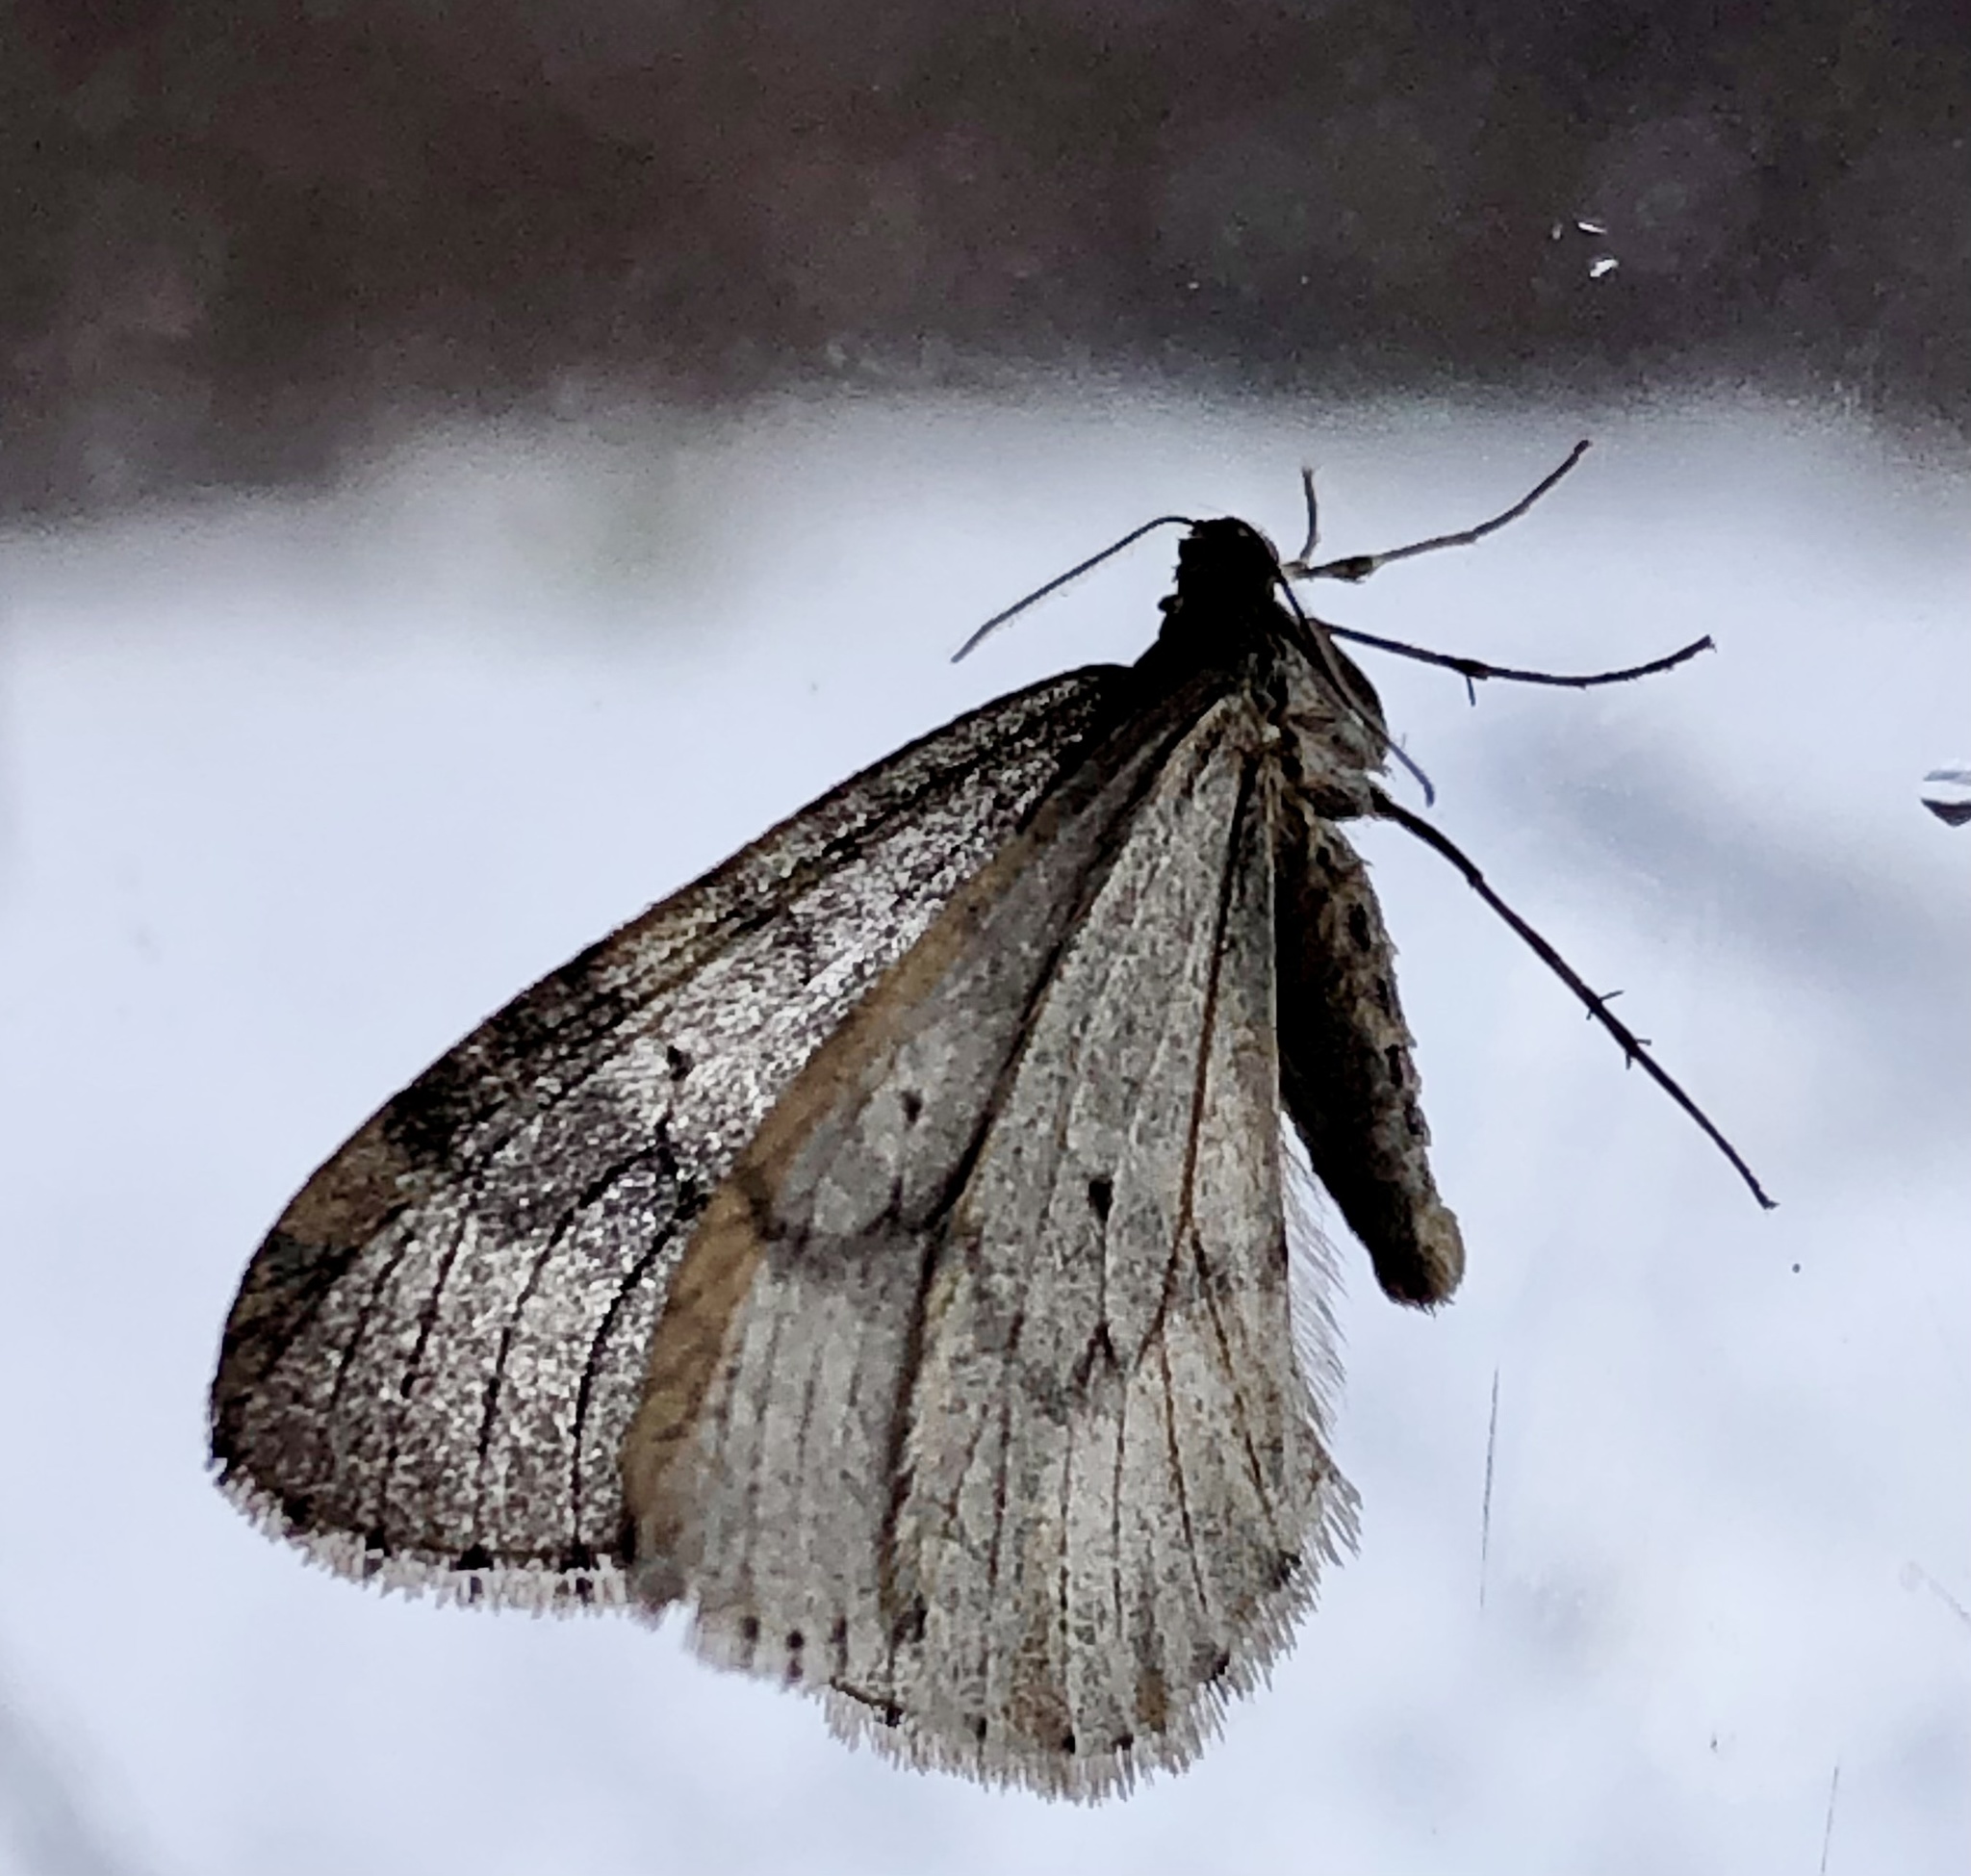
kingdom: Animalia
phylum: Arthropoda
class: Insecta
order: Lepidoptera
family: Geometridae
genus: Operophtera
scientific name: Operophtera bruceata
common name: Bruce spanworm
